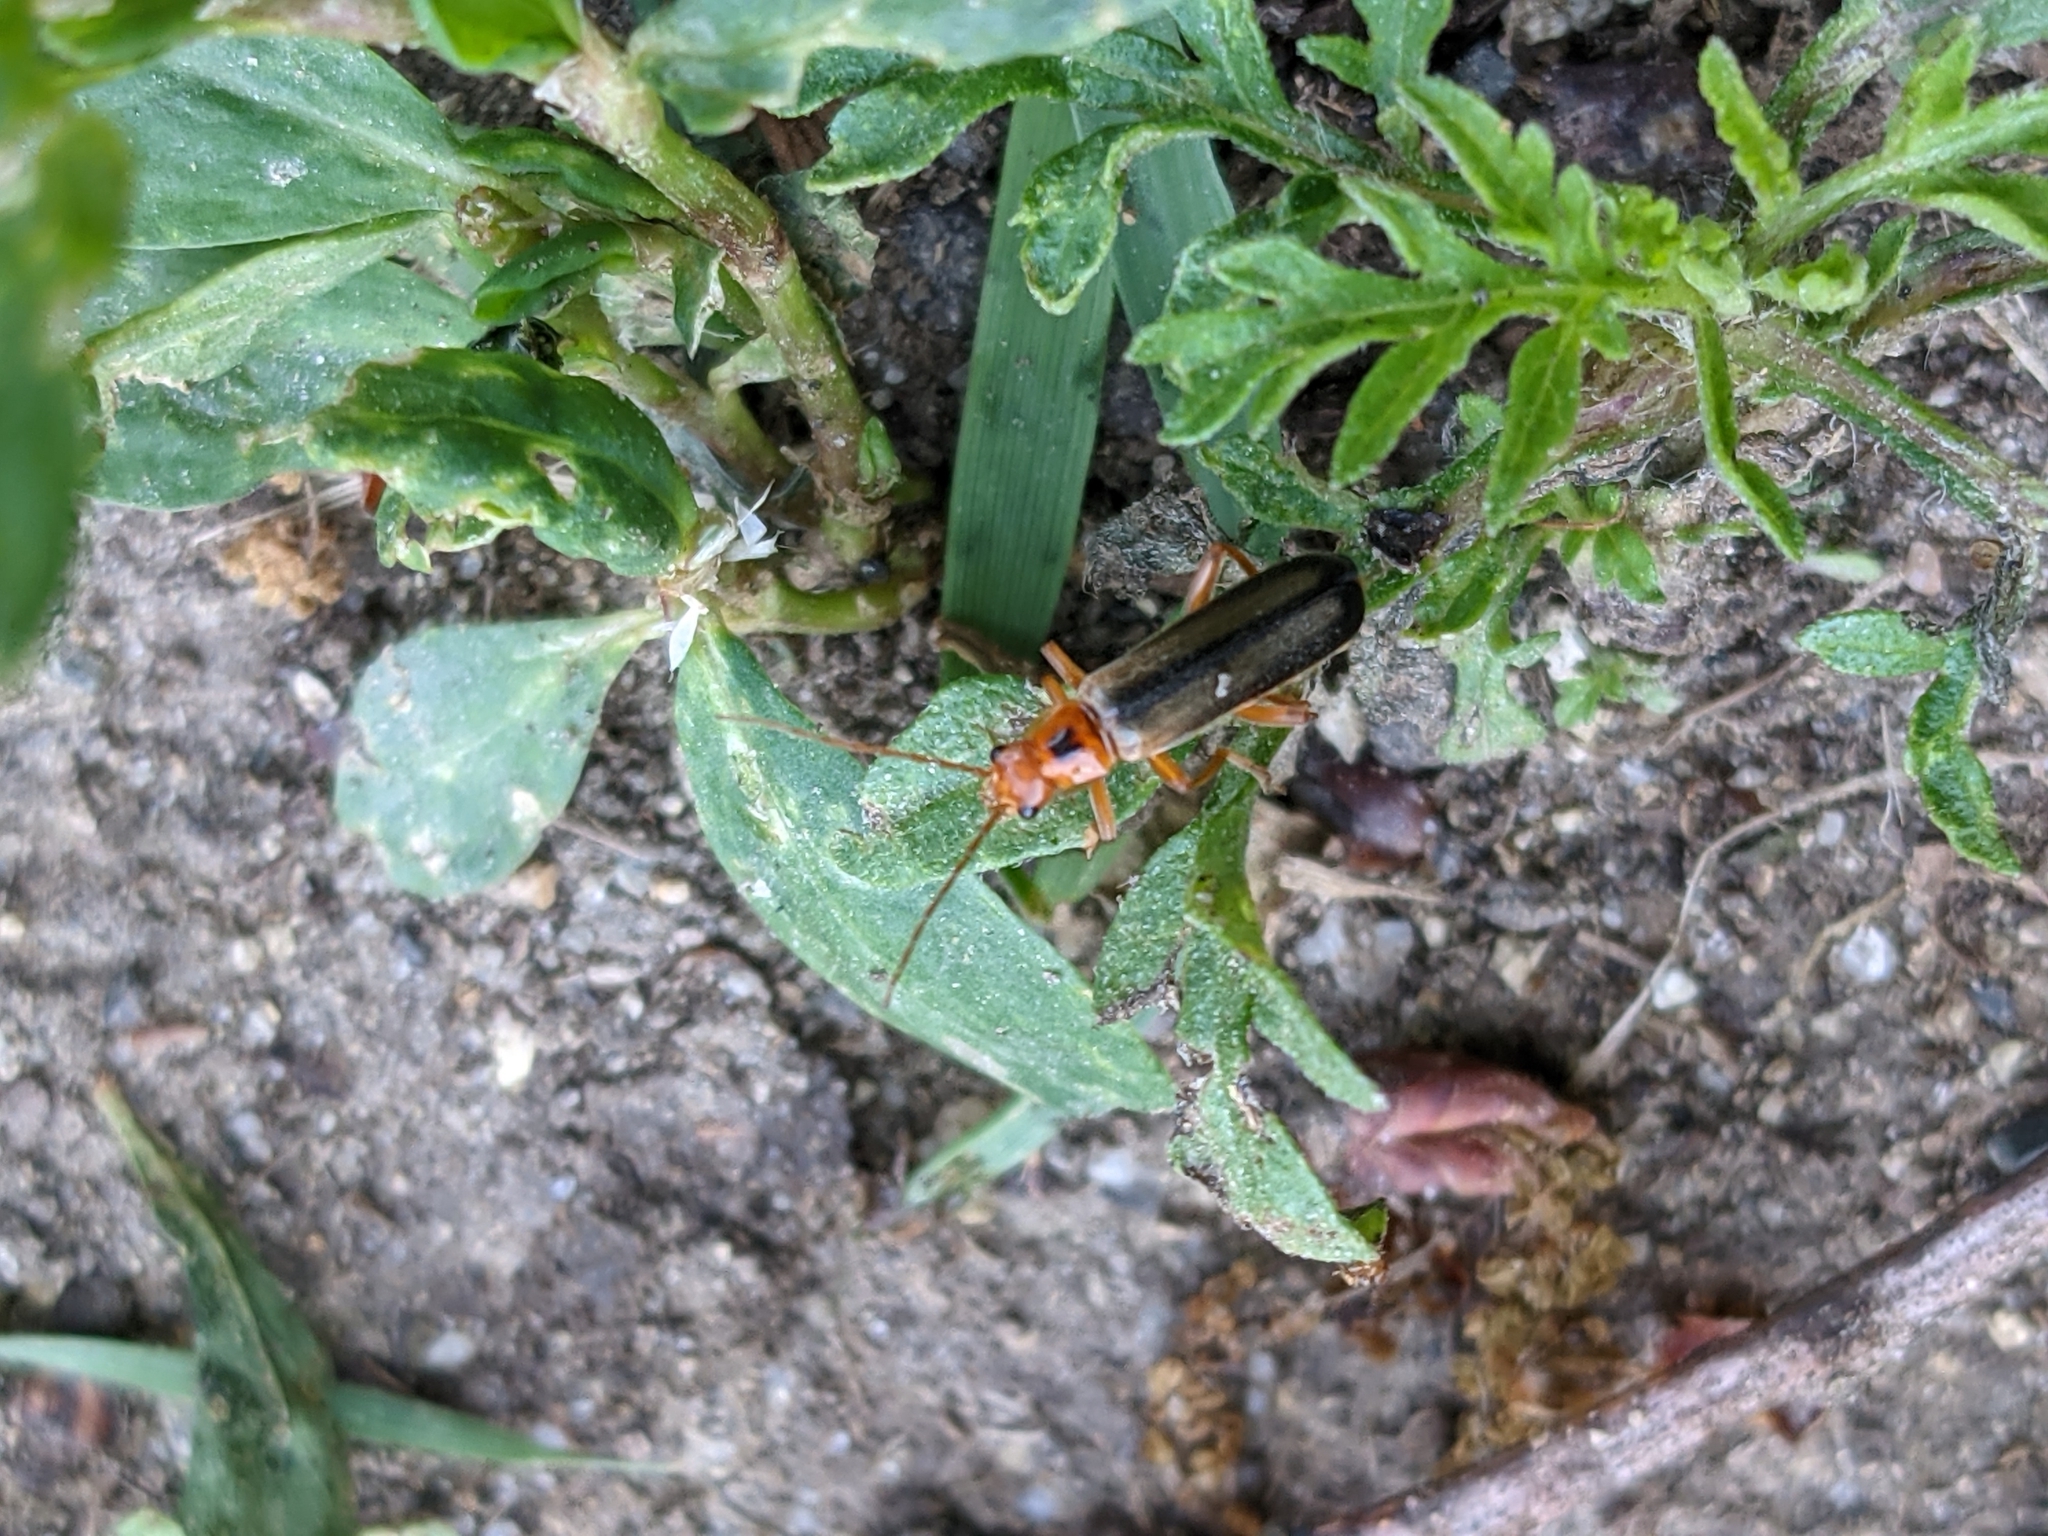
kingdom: Animalia
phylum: Arthropoda
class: Insecta
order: Coleoptera
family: Cantharidae
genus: Metacantharis
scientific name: Metacantharis discoidea
